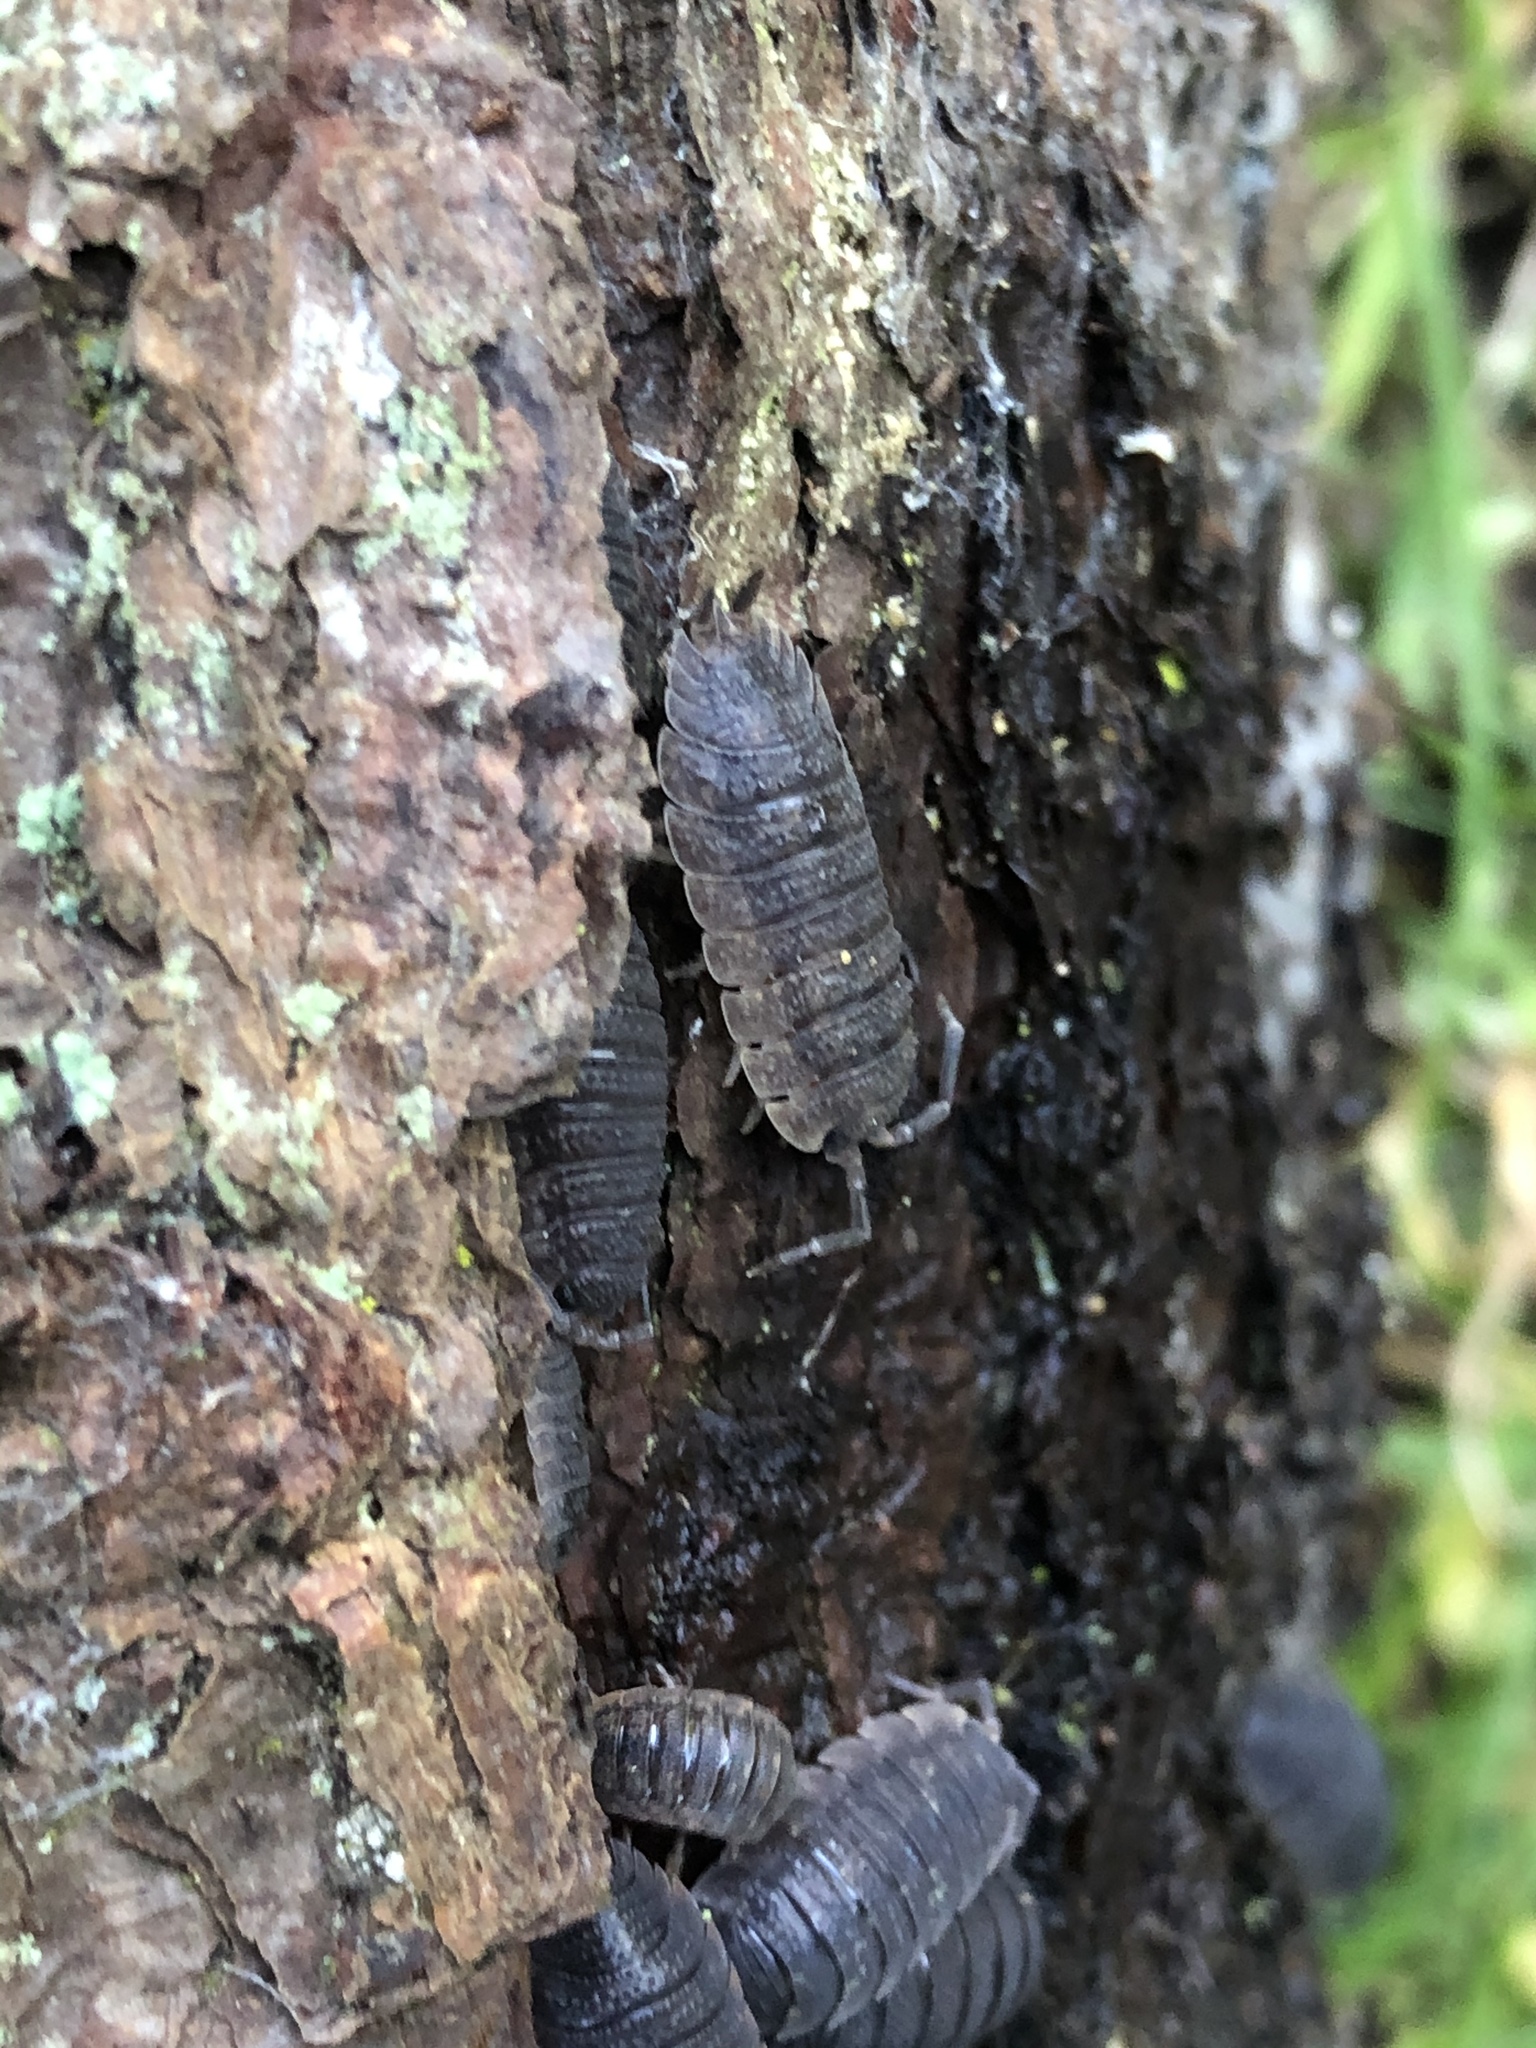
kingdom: Animalia
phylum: Arthropoda
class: Malacostraca
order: Isopoda
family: Porcellionidae
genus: Porcellio
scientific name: Porcellio scaber
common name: Common rough woodlouse
